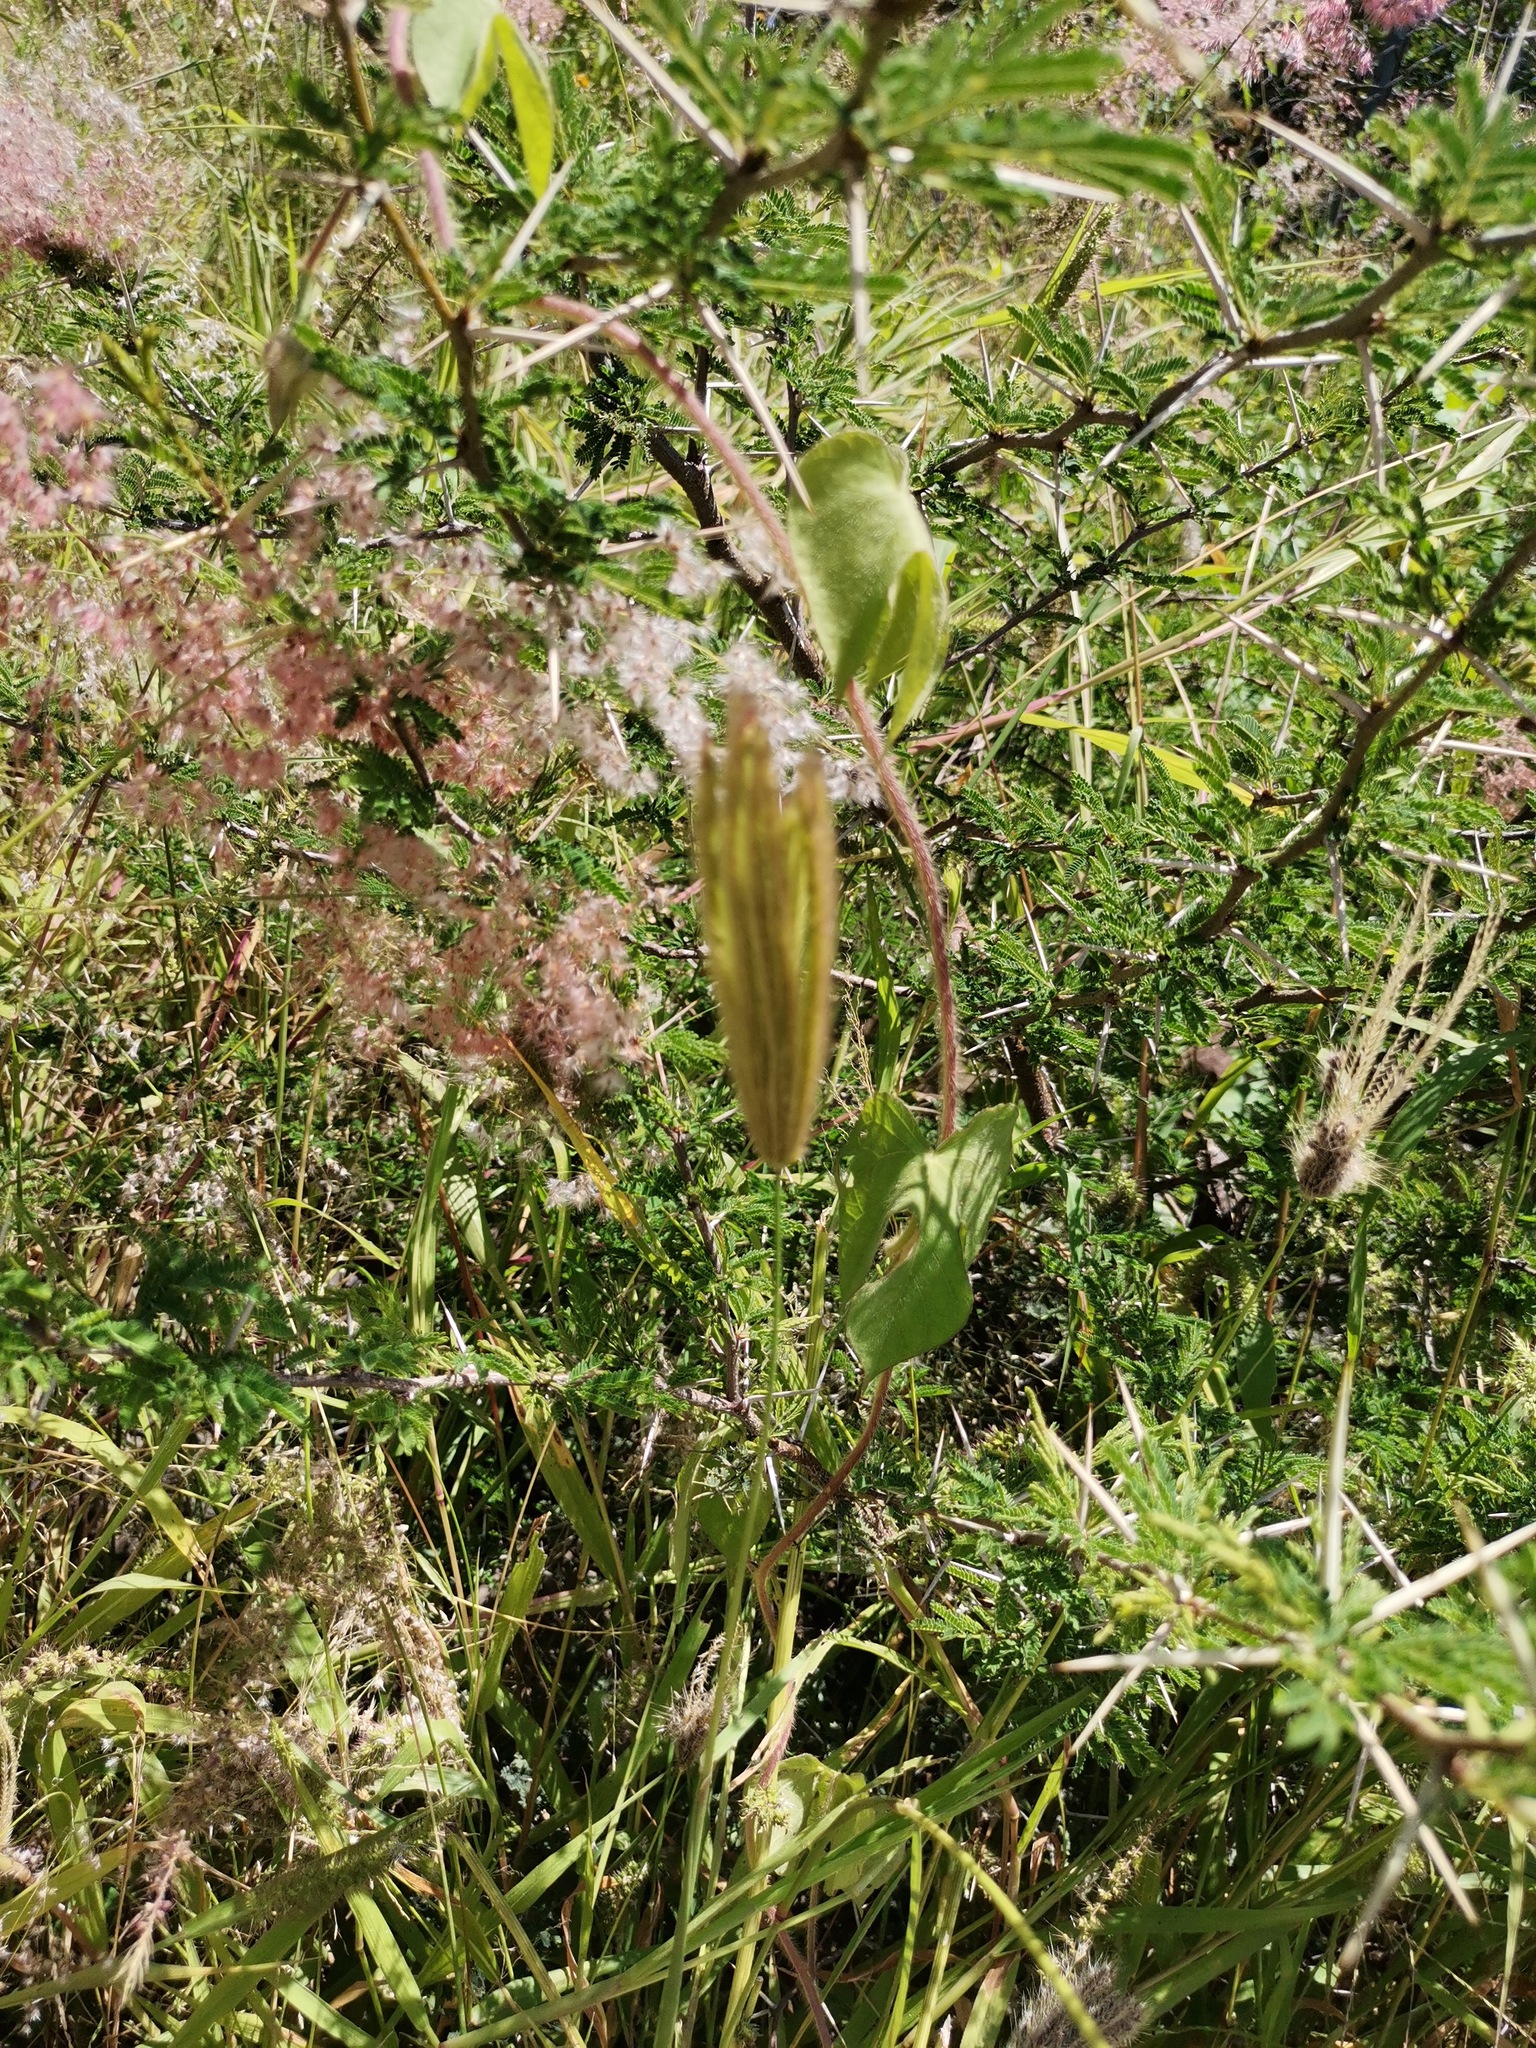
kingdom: Plantae
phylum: Tracheophyta
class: Liliopsida
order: Poales
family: Poaceae
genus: Melinis
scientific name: Melinis repens
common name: Rose natal grass
